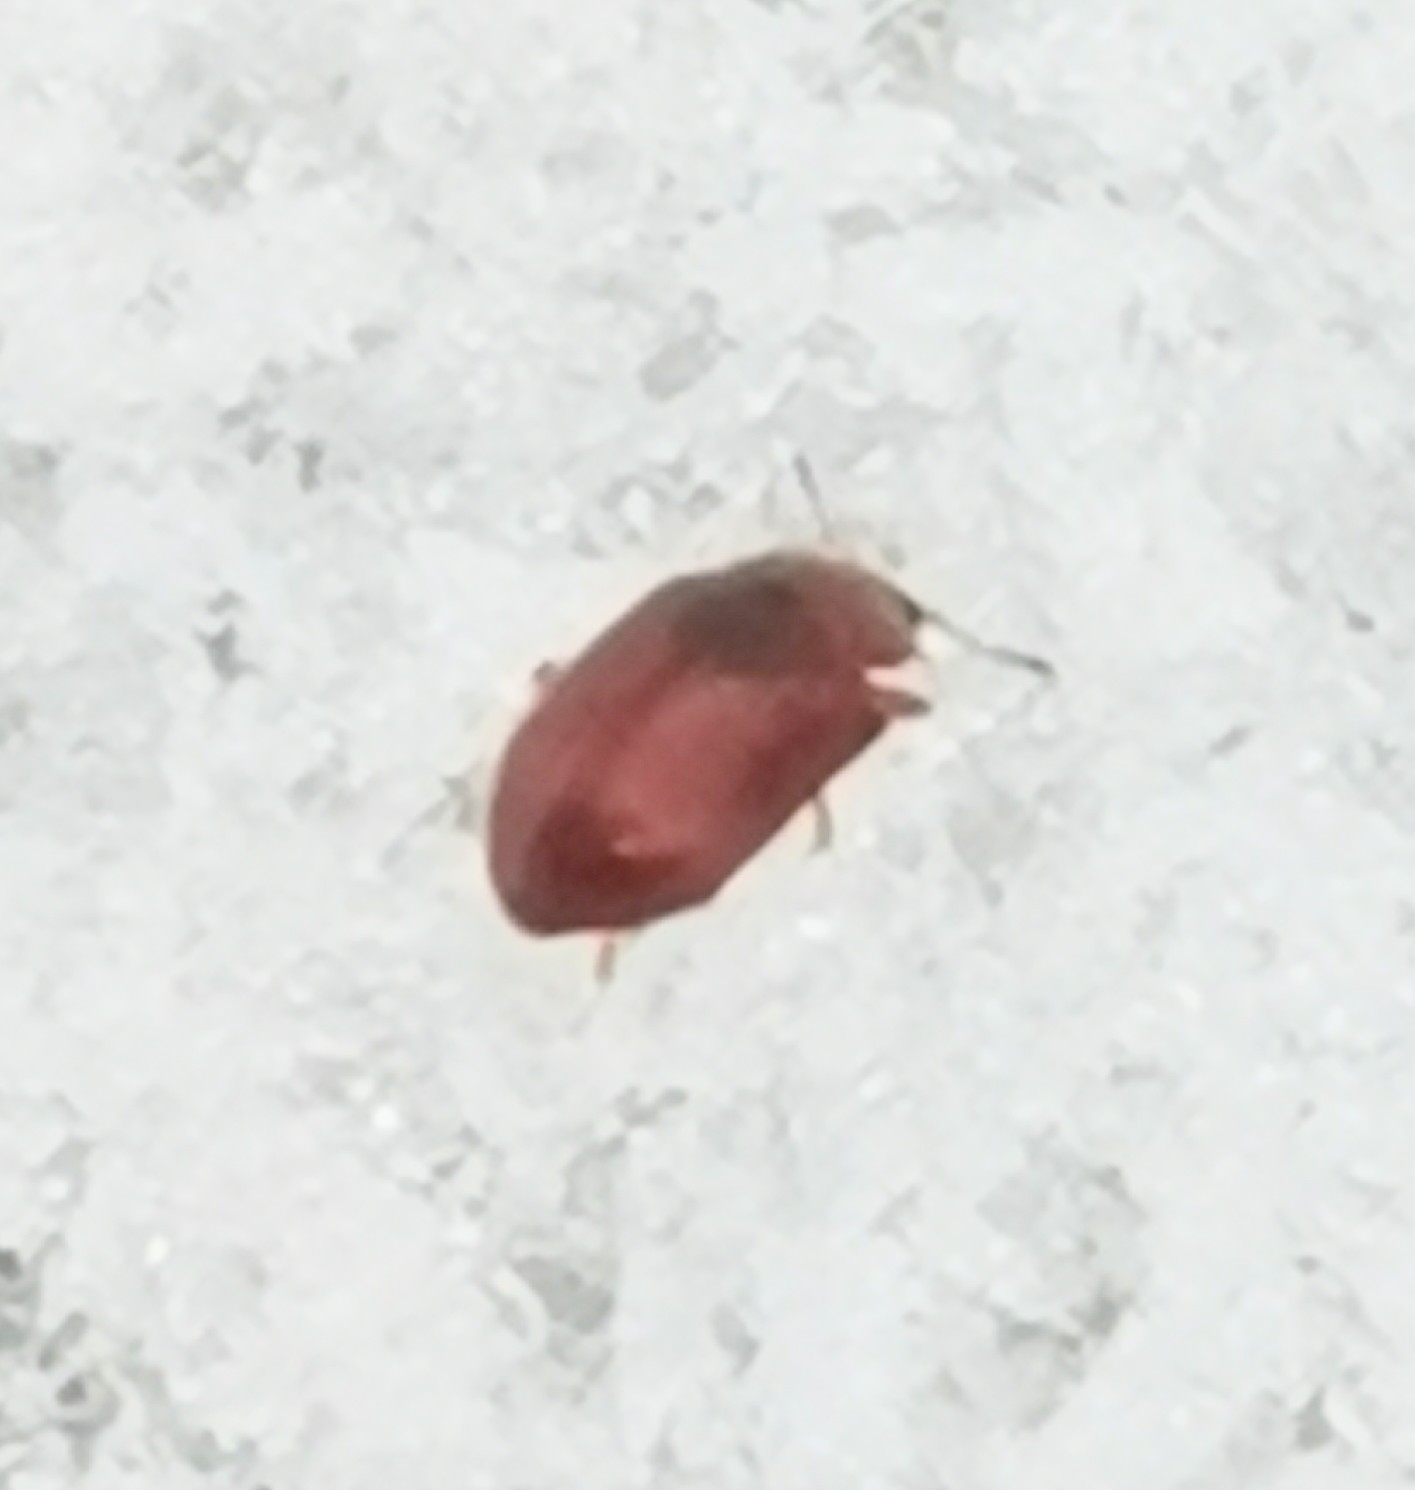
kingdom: Animalia
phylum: Arthropoda
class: Insecta
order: Coleoptera
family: Coccinellidae
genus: Coccidula
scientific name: Coccidula rufa
